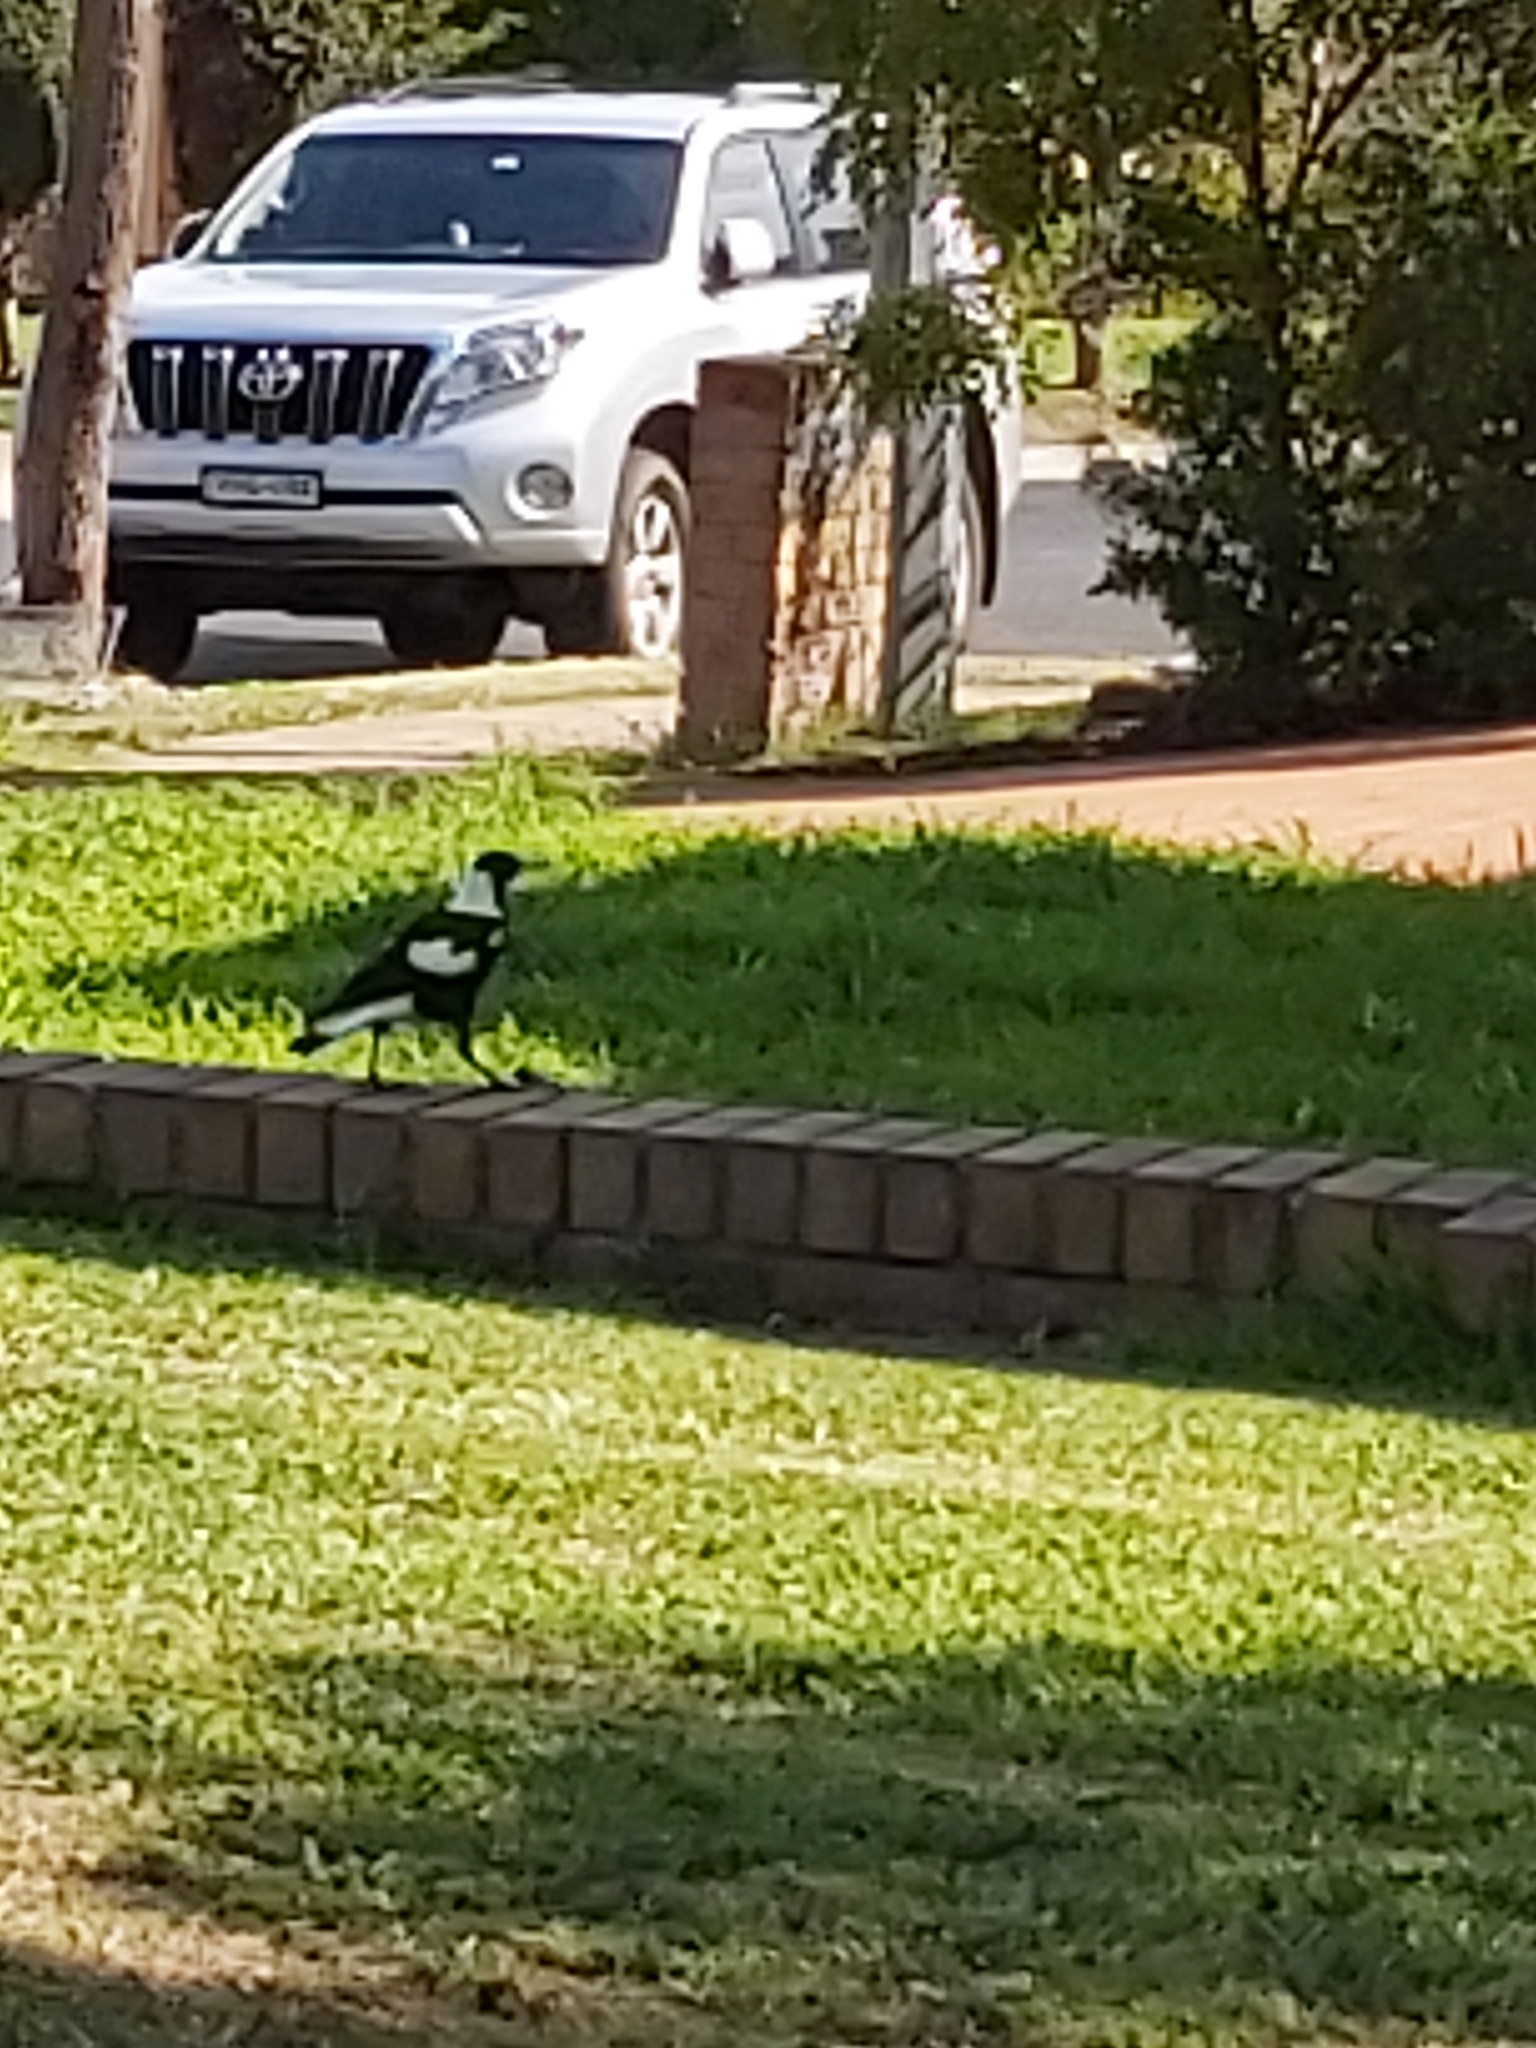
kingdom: Animalia
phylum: Chordata
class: Aves
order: Passeriformes
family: Cracticidae
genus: Gymnorhina
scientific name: Gymnorhina tibicen
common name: Australian magpie
